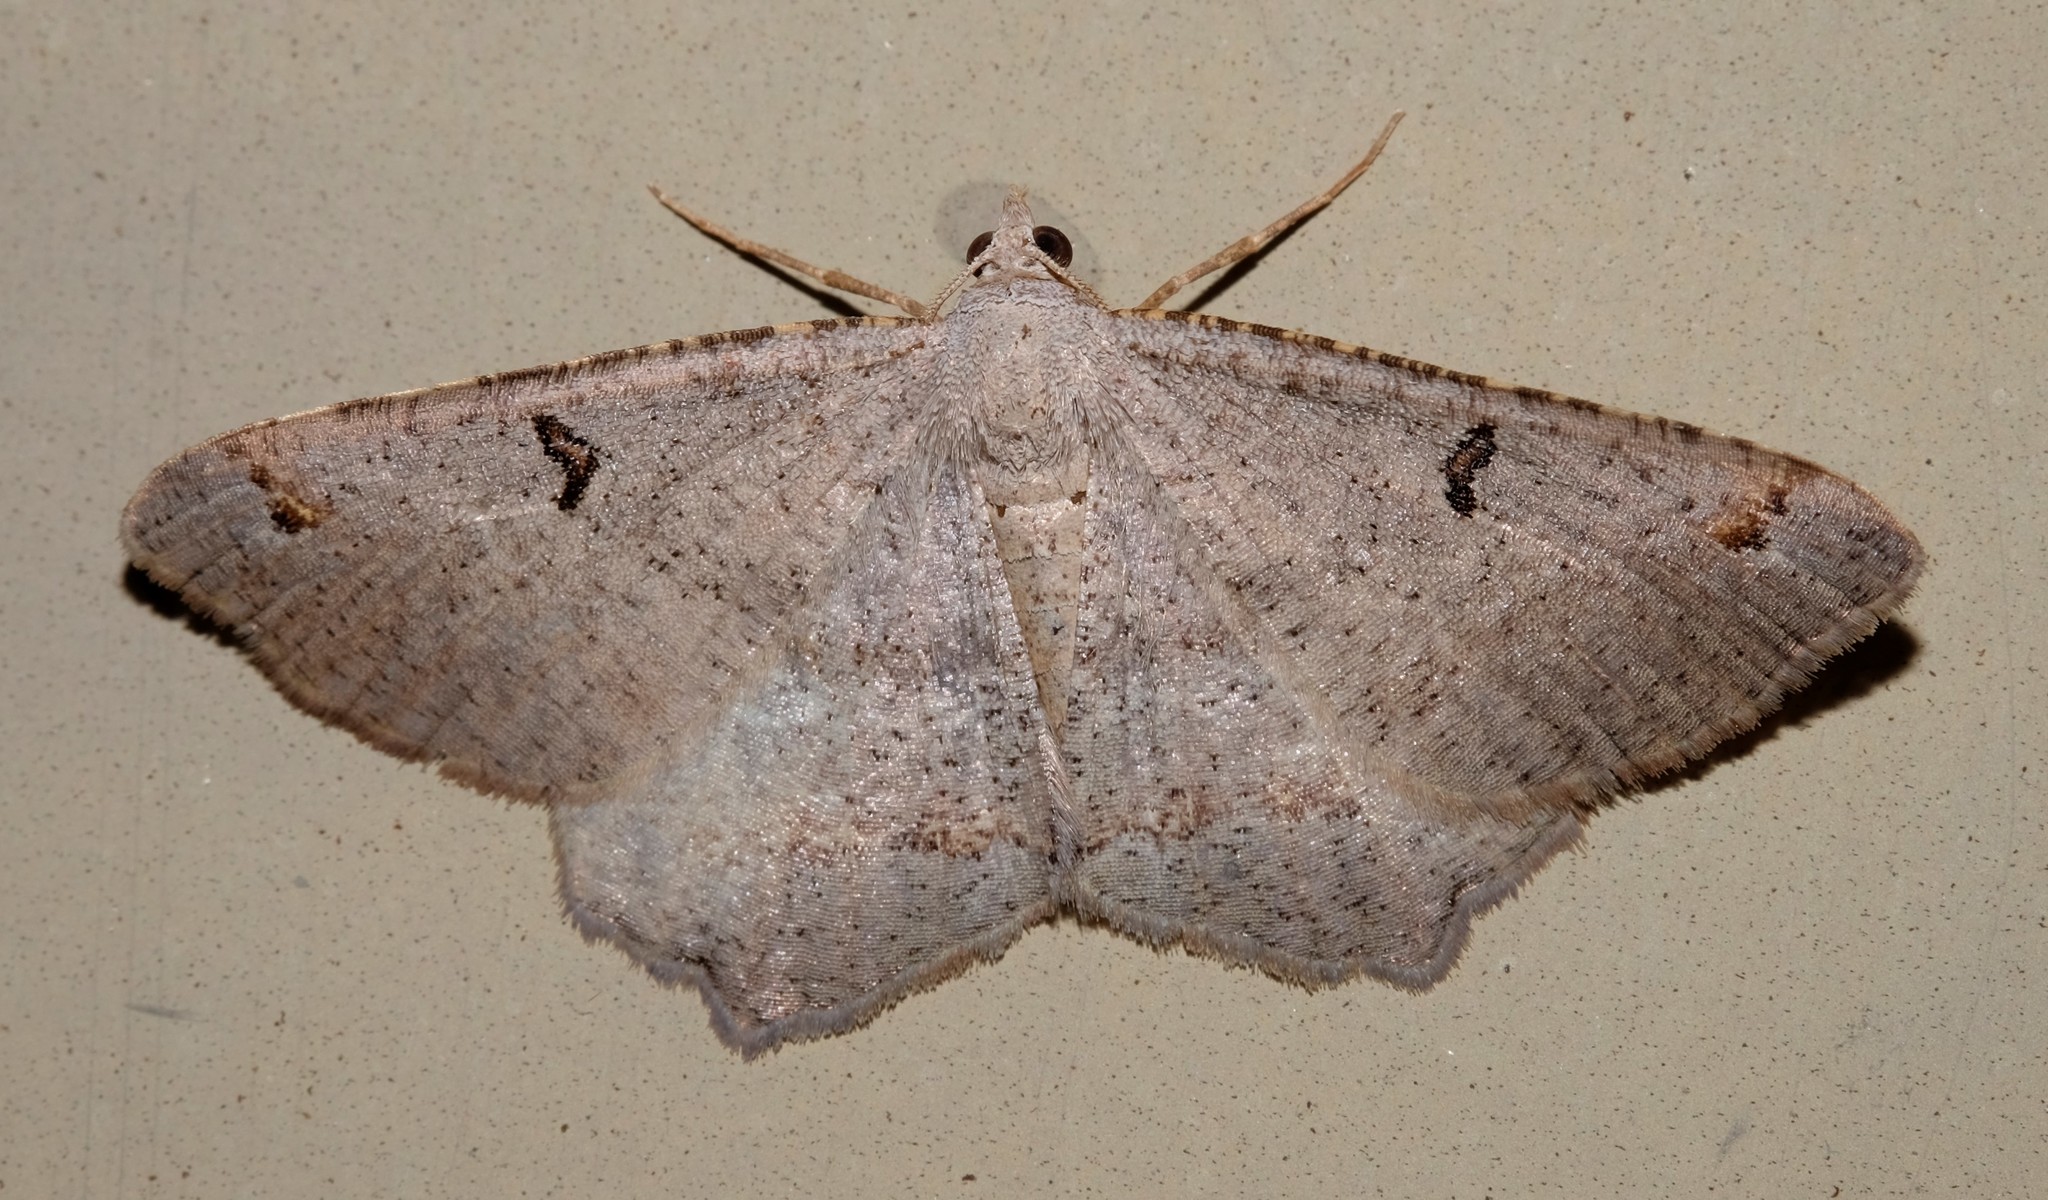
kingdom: Animalia
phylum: Arthropoda
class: Insecta
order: Lepidoptera
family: Geometridae
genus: Dissomorphia
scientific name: Dissomorphia australiaria
